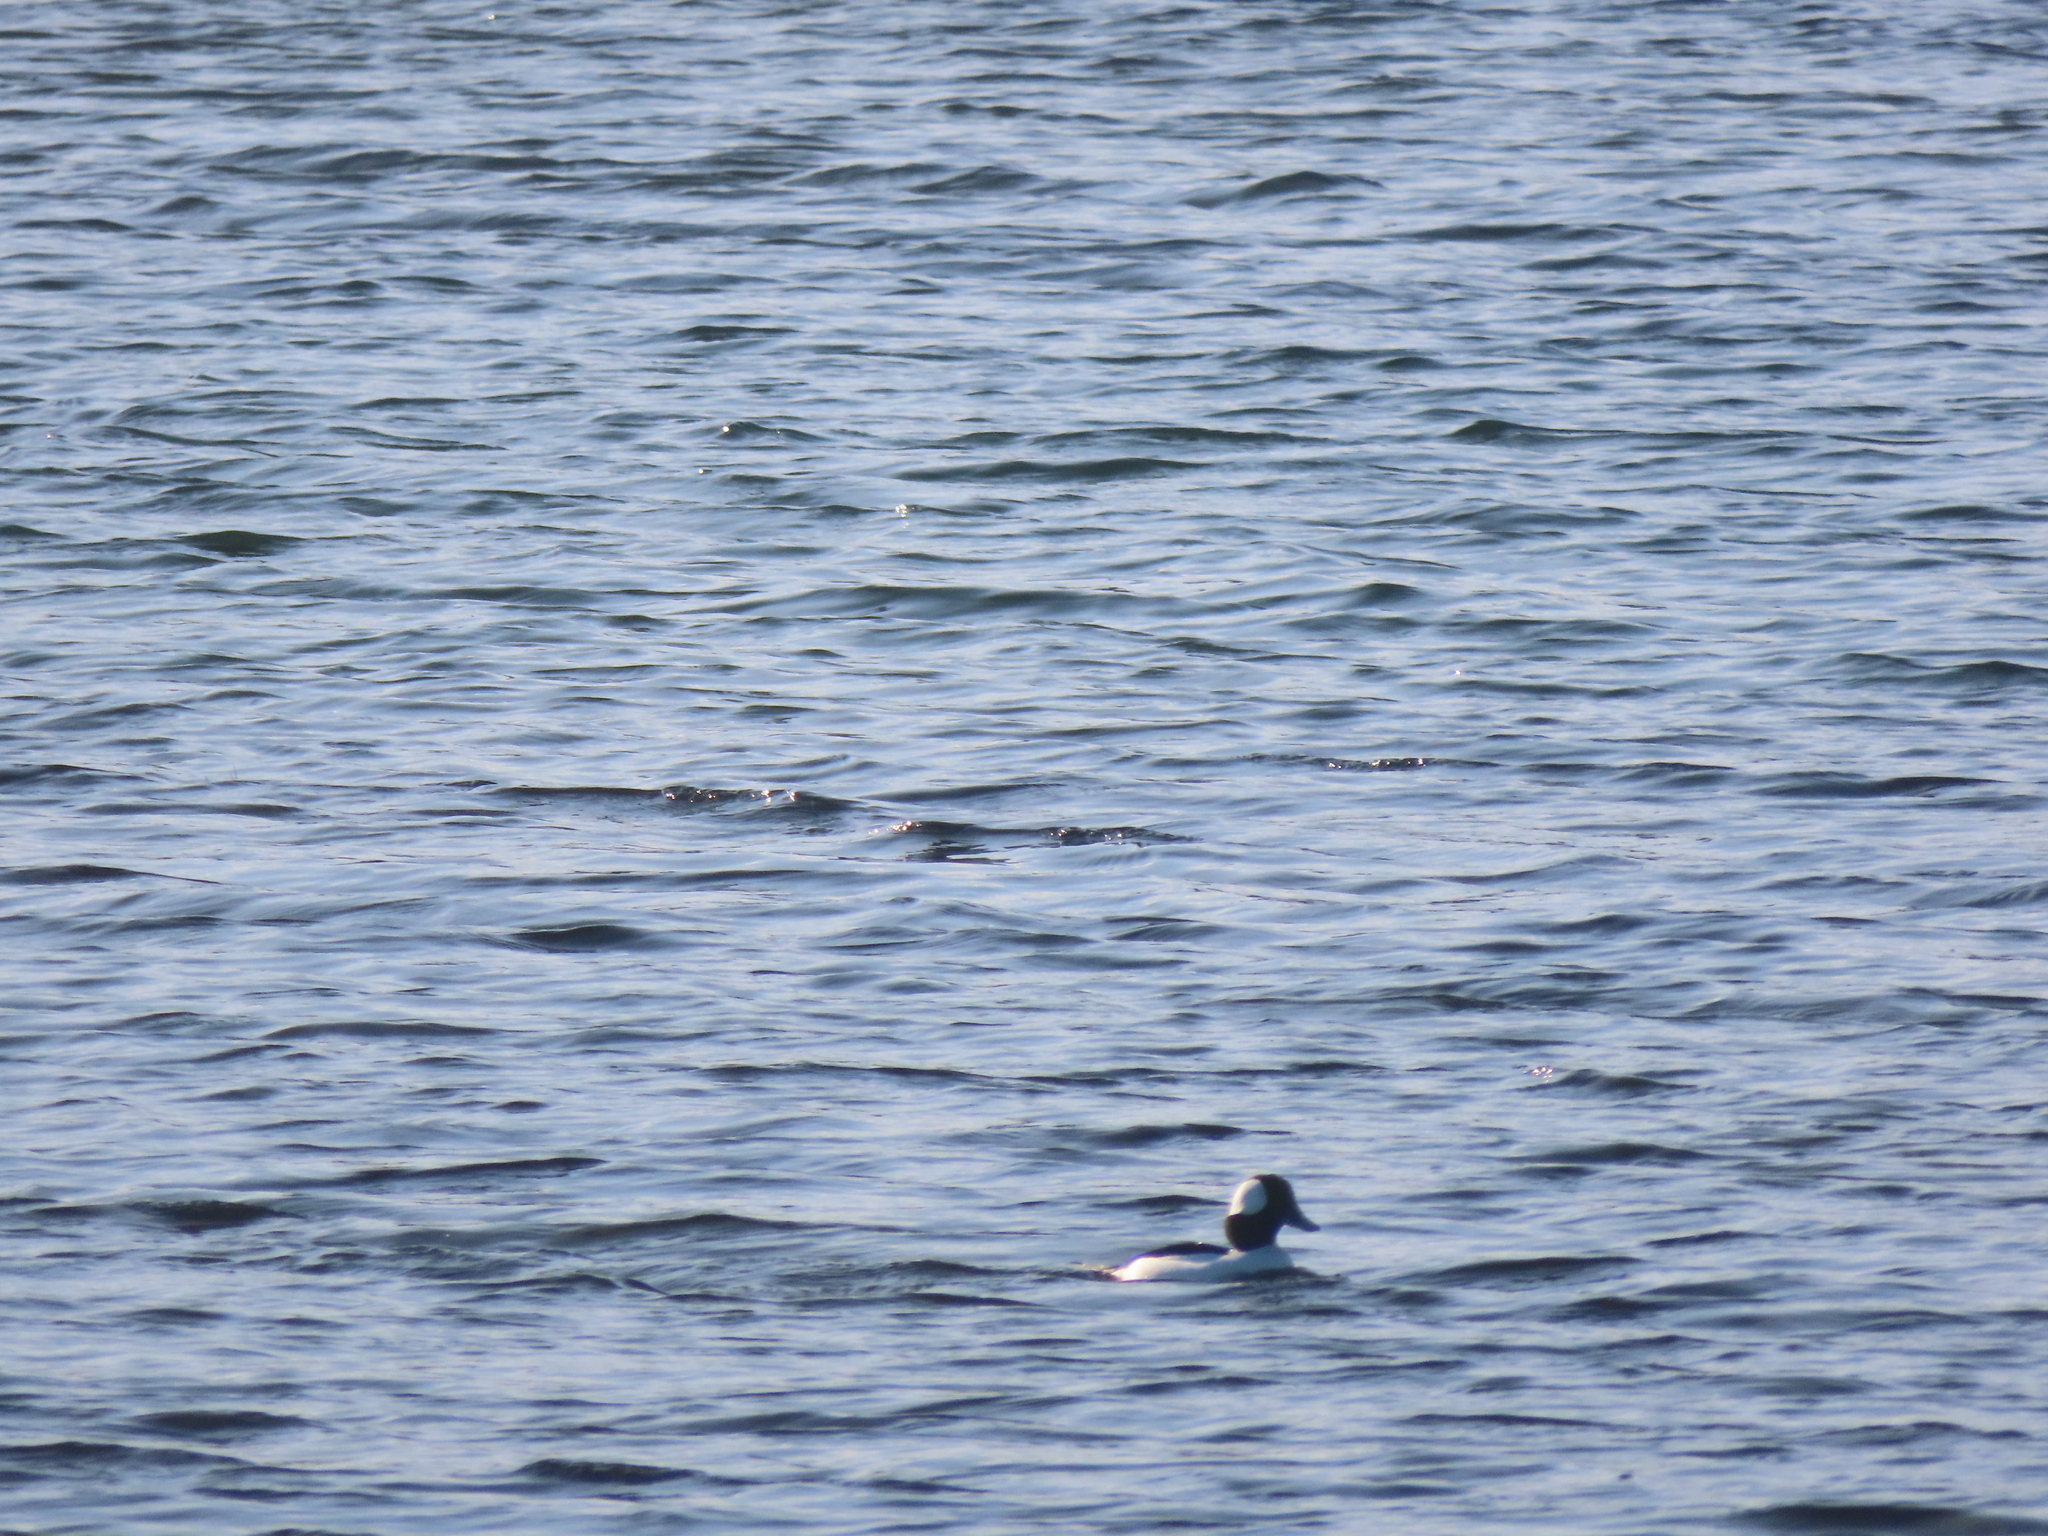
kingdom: Animalia
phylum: Chordata
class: Aves
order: Anseriformes
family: Anatidae
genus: Bucephala
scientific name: Bucephala albeola
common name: Bufflehead
